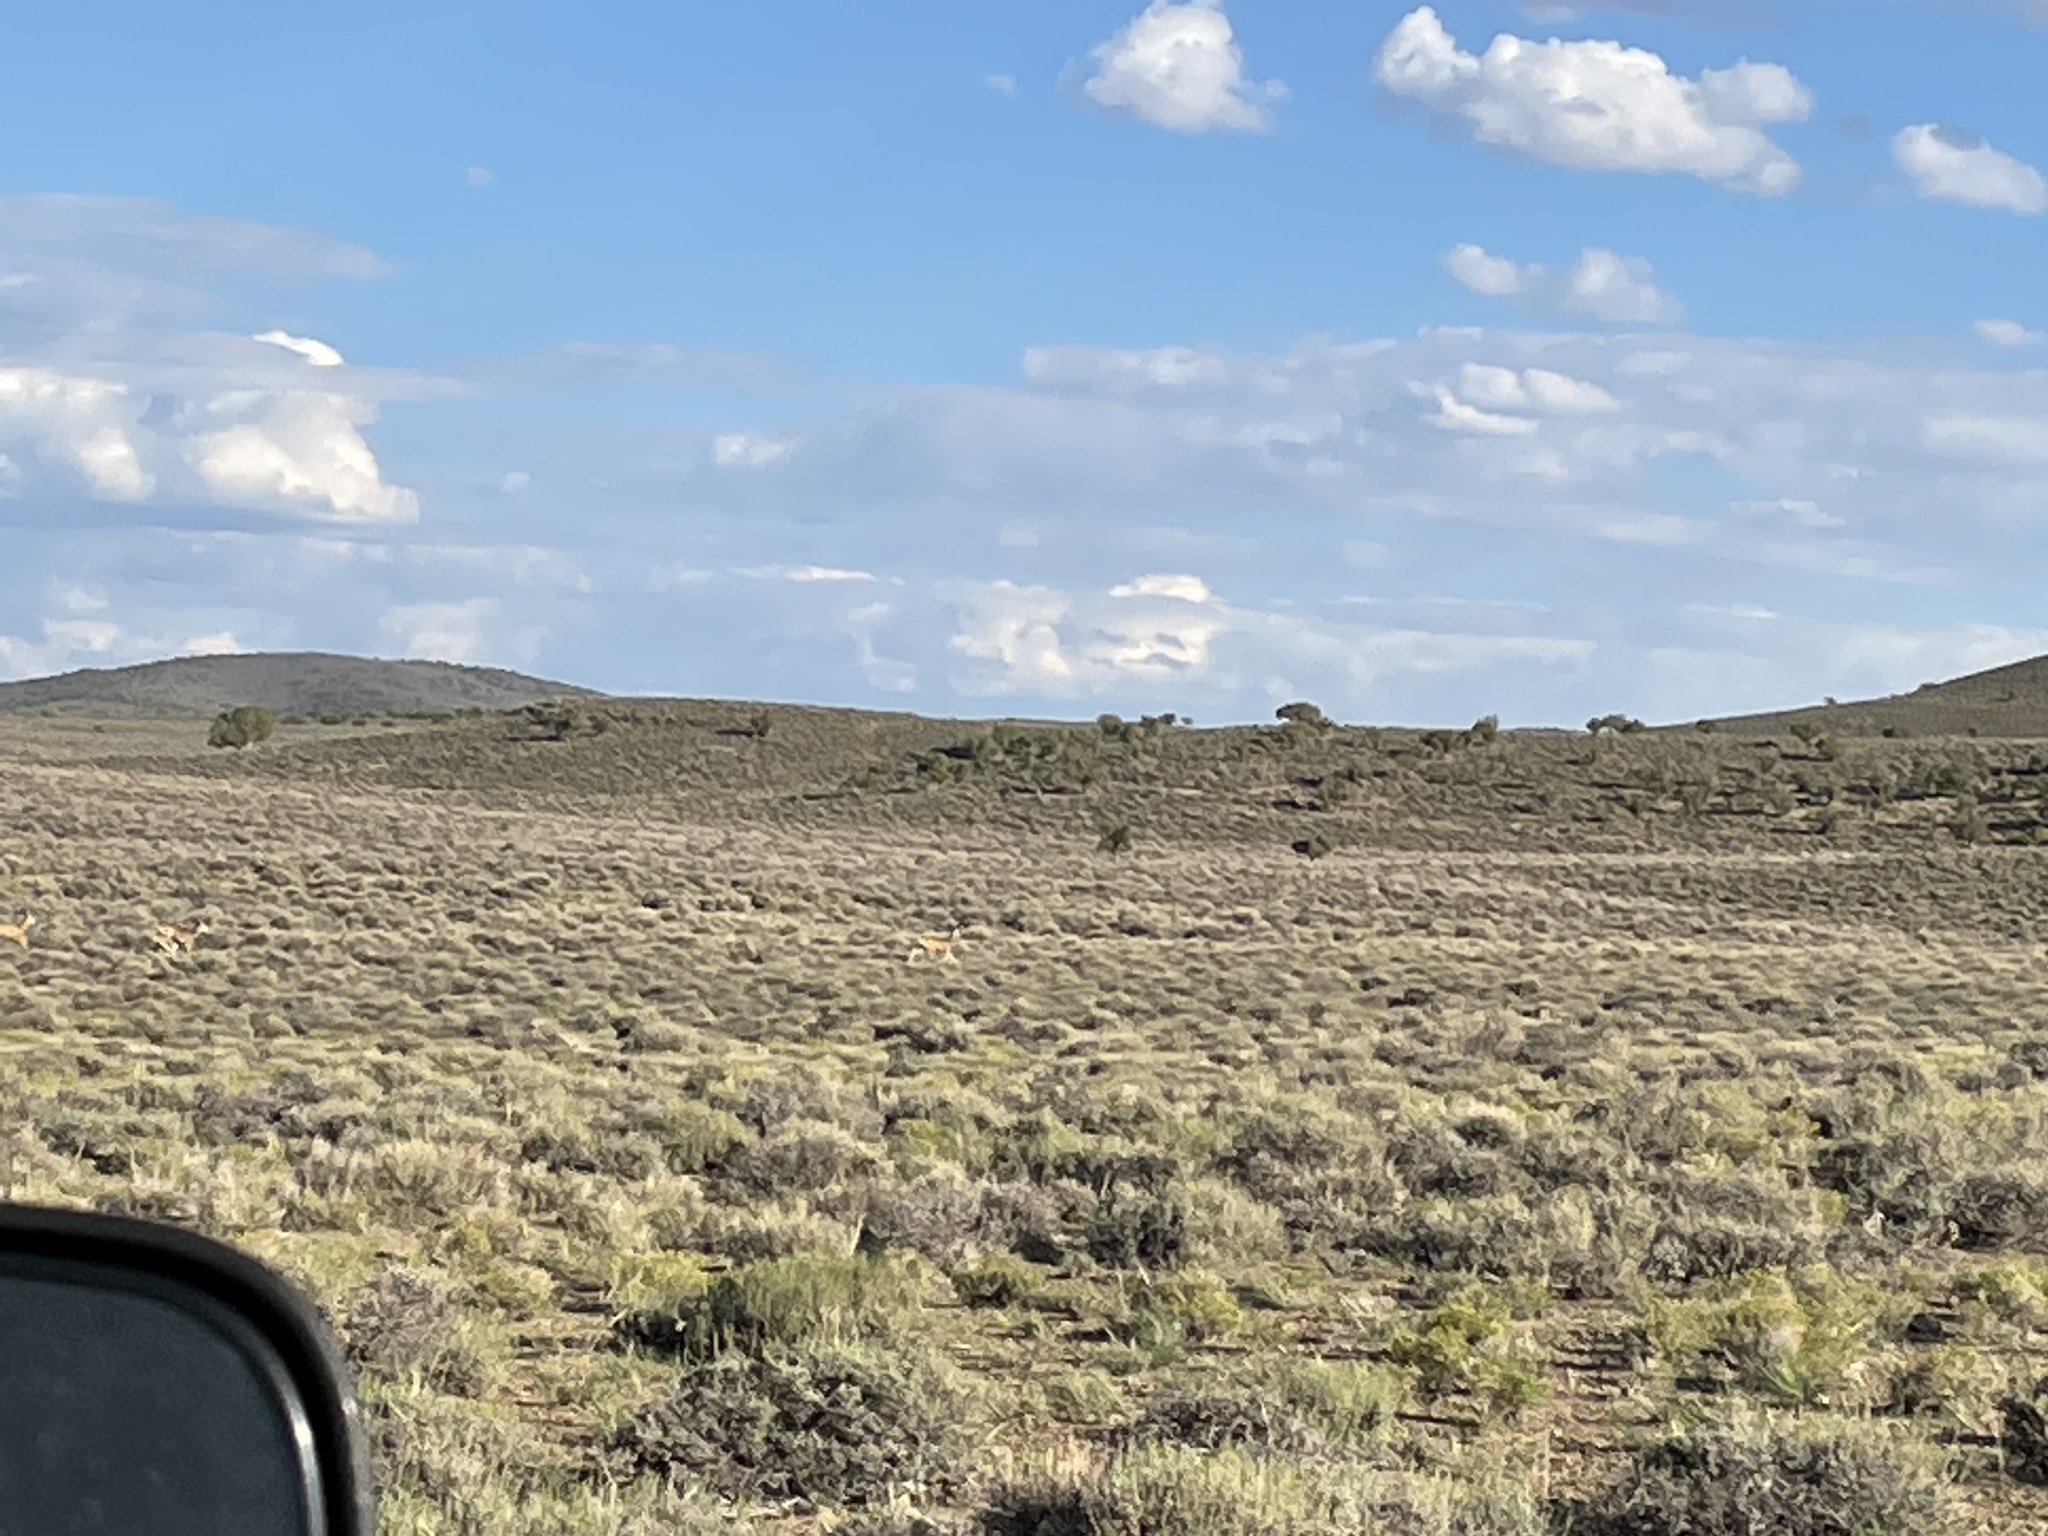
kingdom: Animalia
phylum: Chordata
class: Mammalia
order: Artiodactyla
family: Cervidae
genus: Odocoileus
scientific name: Odocoileus hemionus
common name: Mule deer
